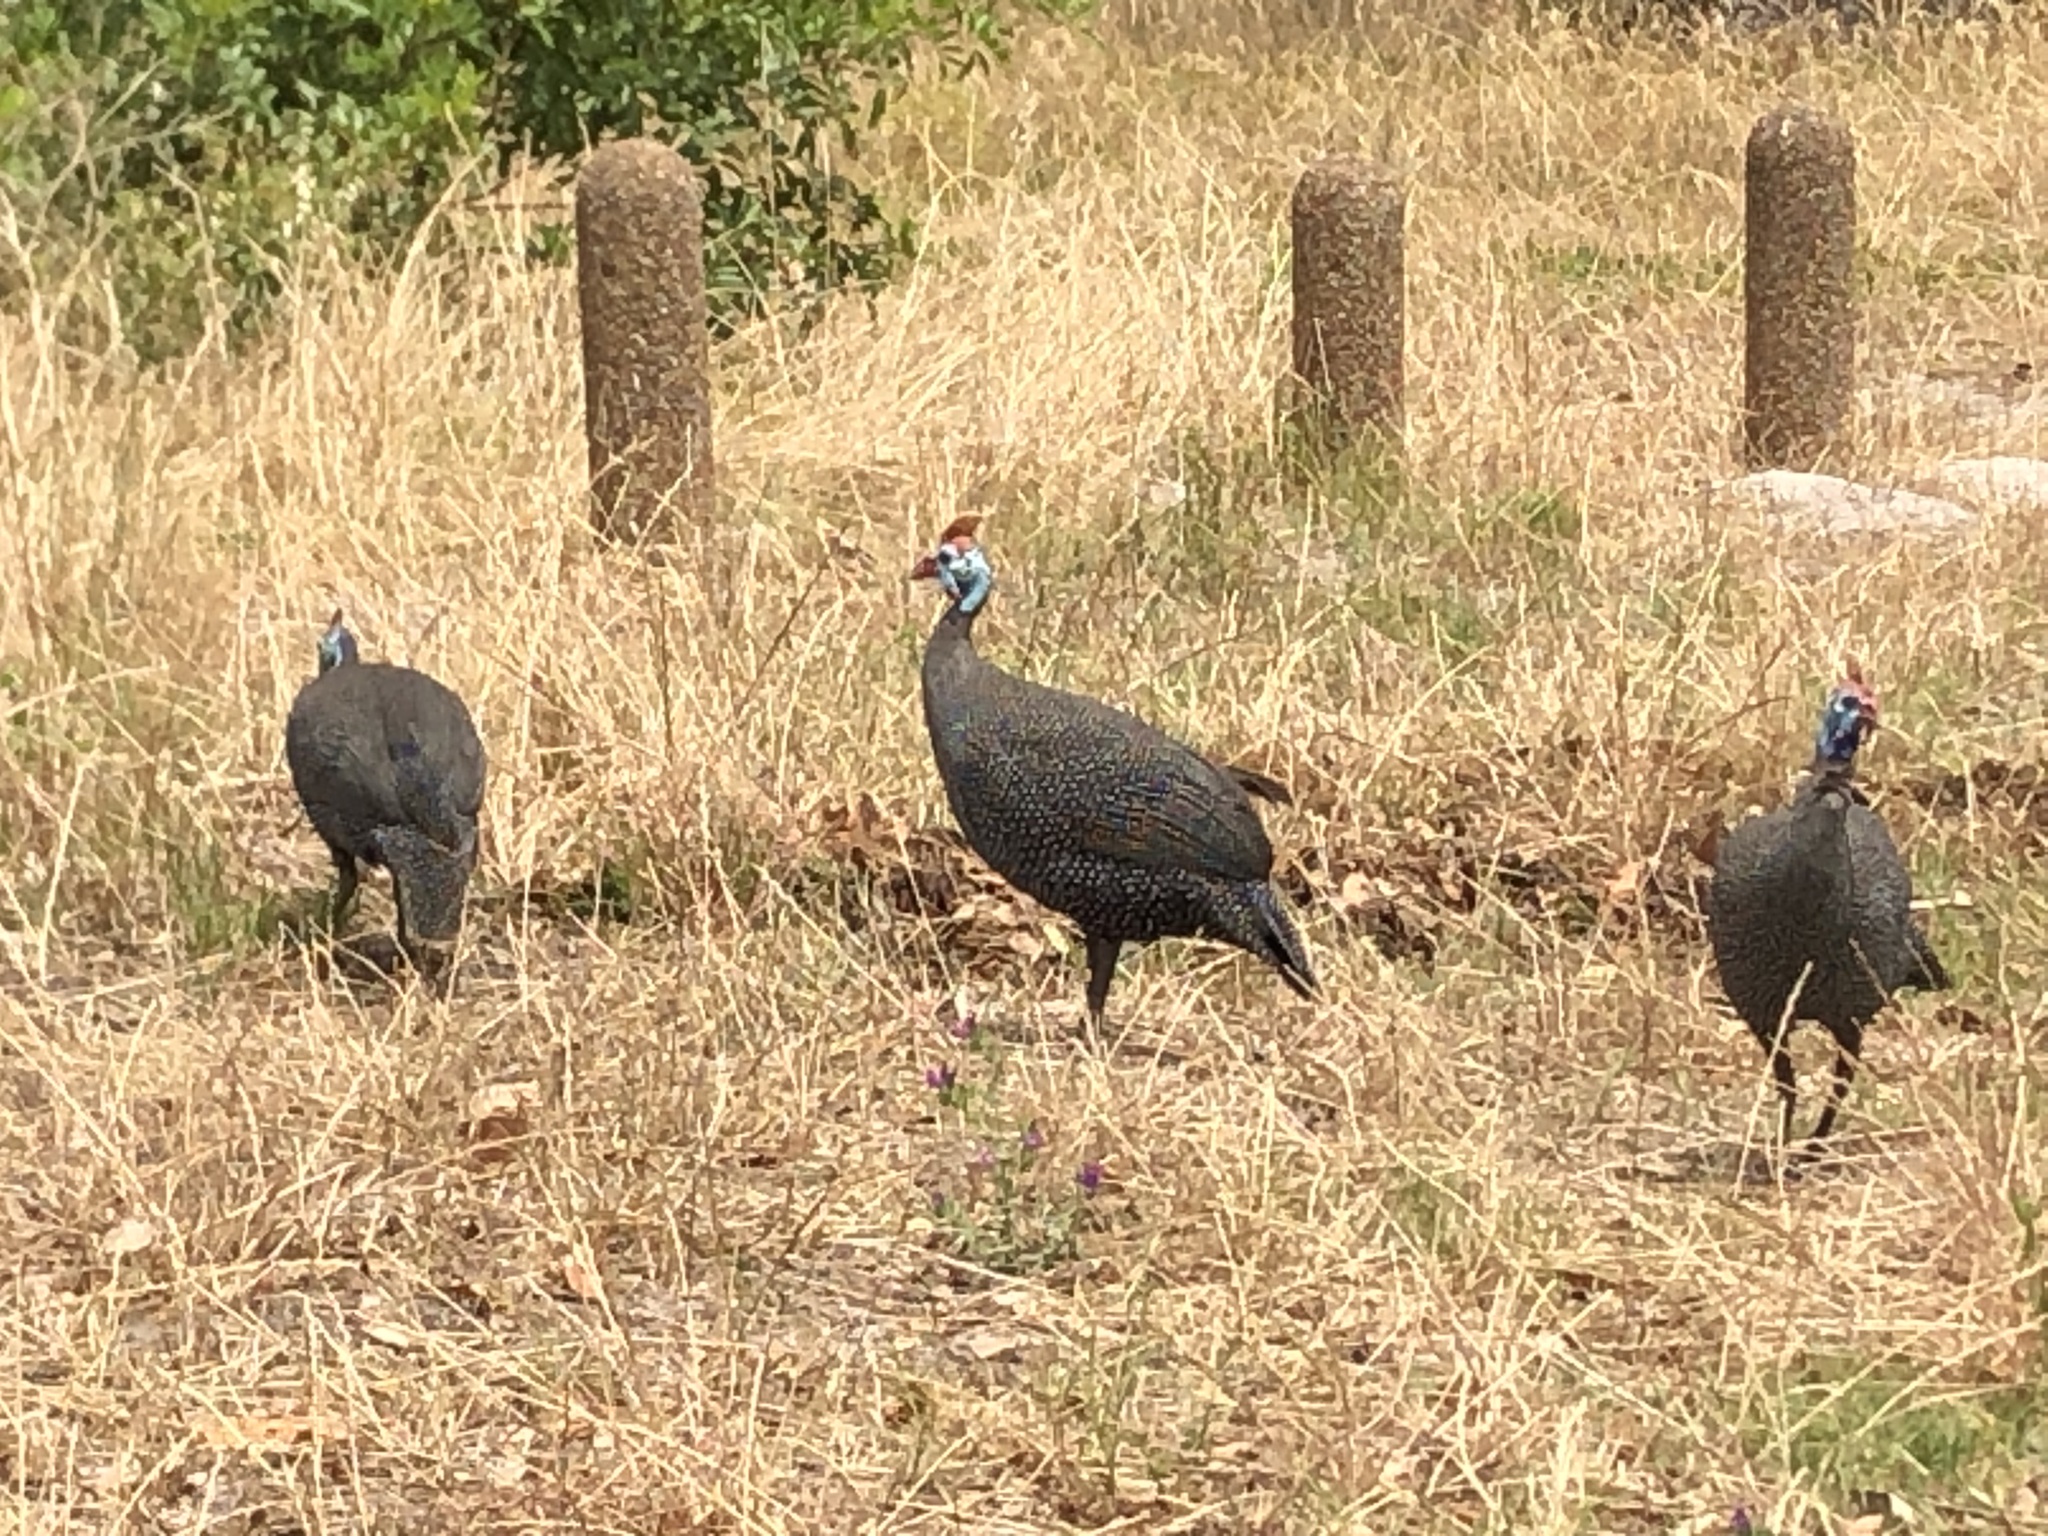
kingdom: Animalia
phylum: Chordata
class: Aves
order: Galliformes
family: Numididae
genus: Numida
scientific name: Numida meleagris
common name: Helmeted guineafowl
